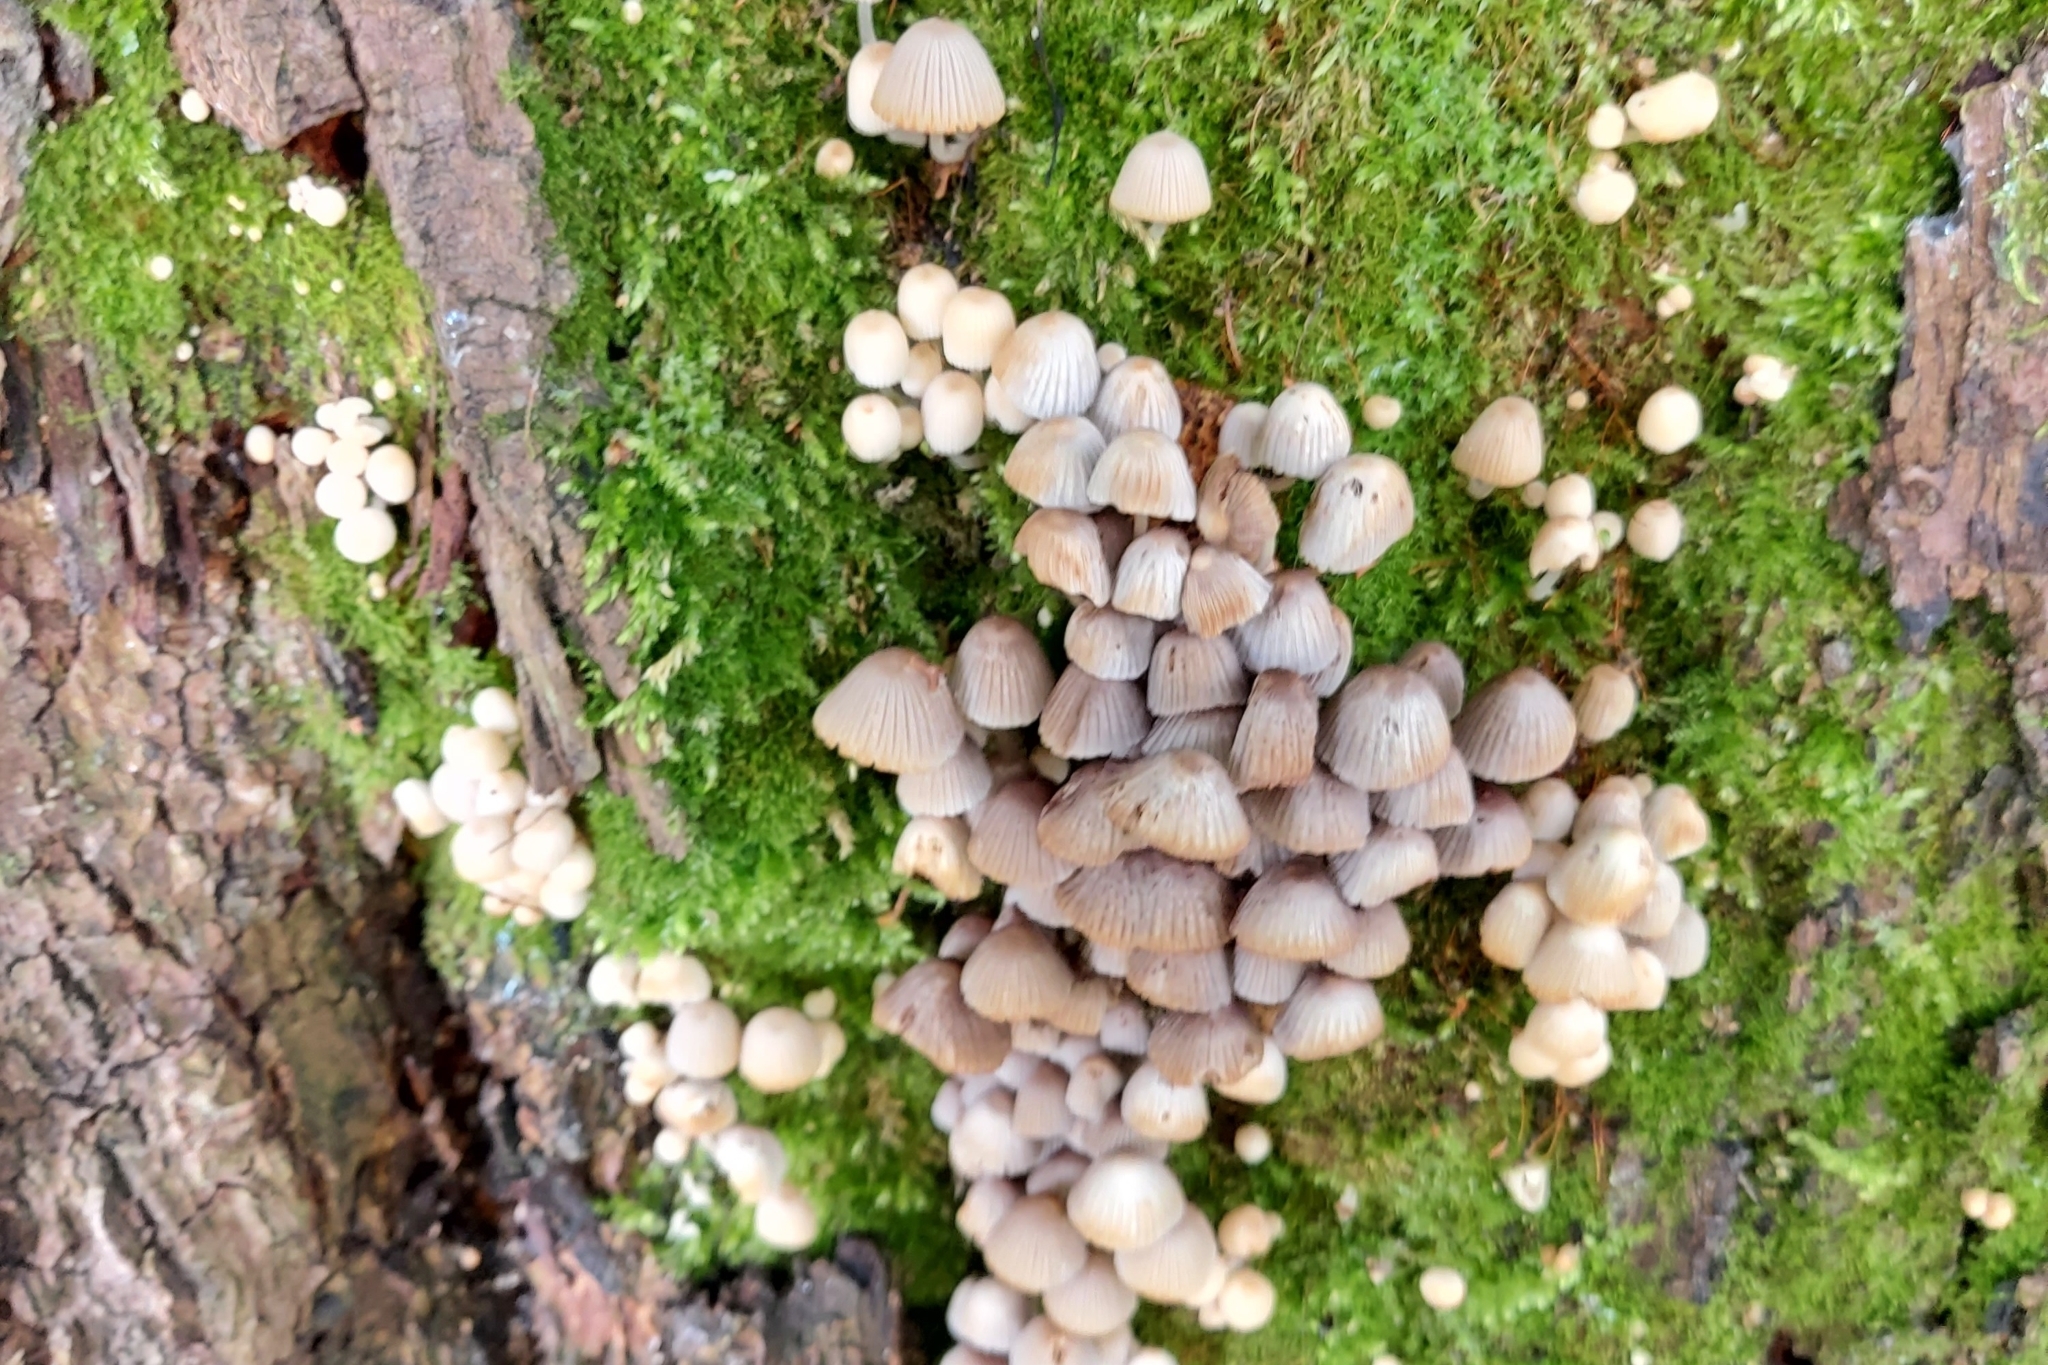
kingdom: Fungi
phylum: Basidiomycota
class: Agaricomycetes
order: Agaricales
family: Psathyrellaceae
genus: Coprinellus
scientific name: Coprinellus disseminatus
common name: Fairies' bonnets
